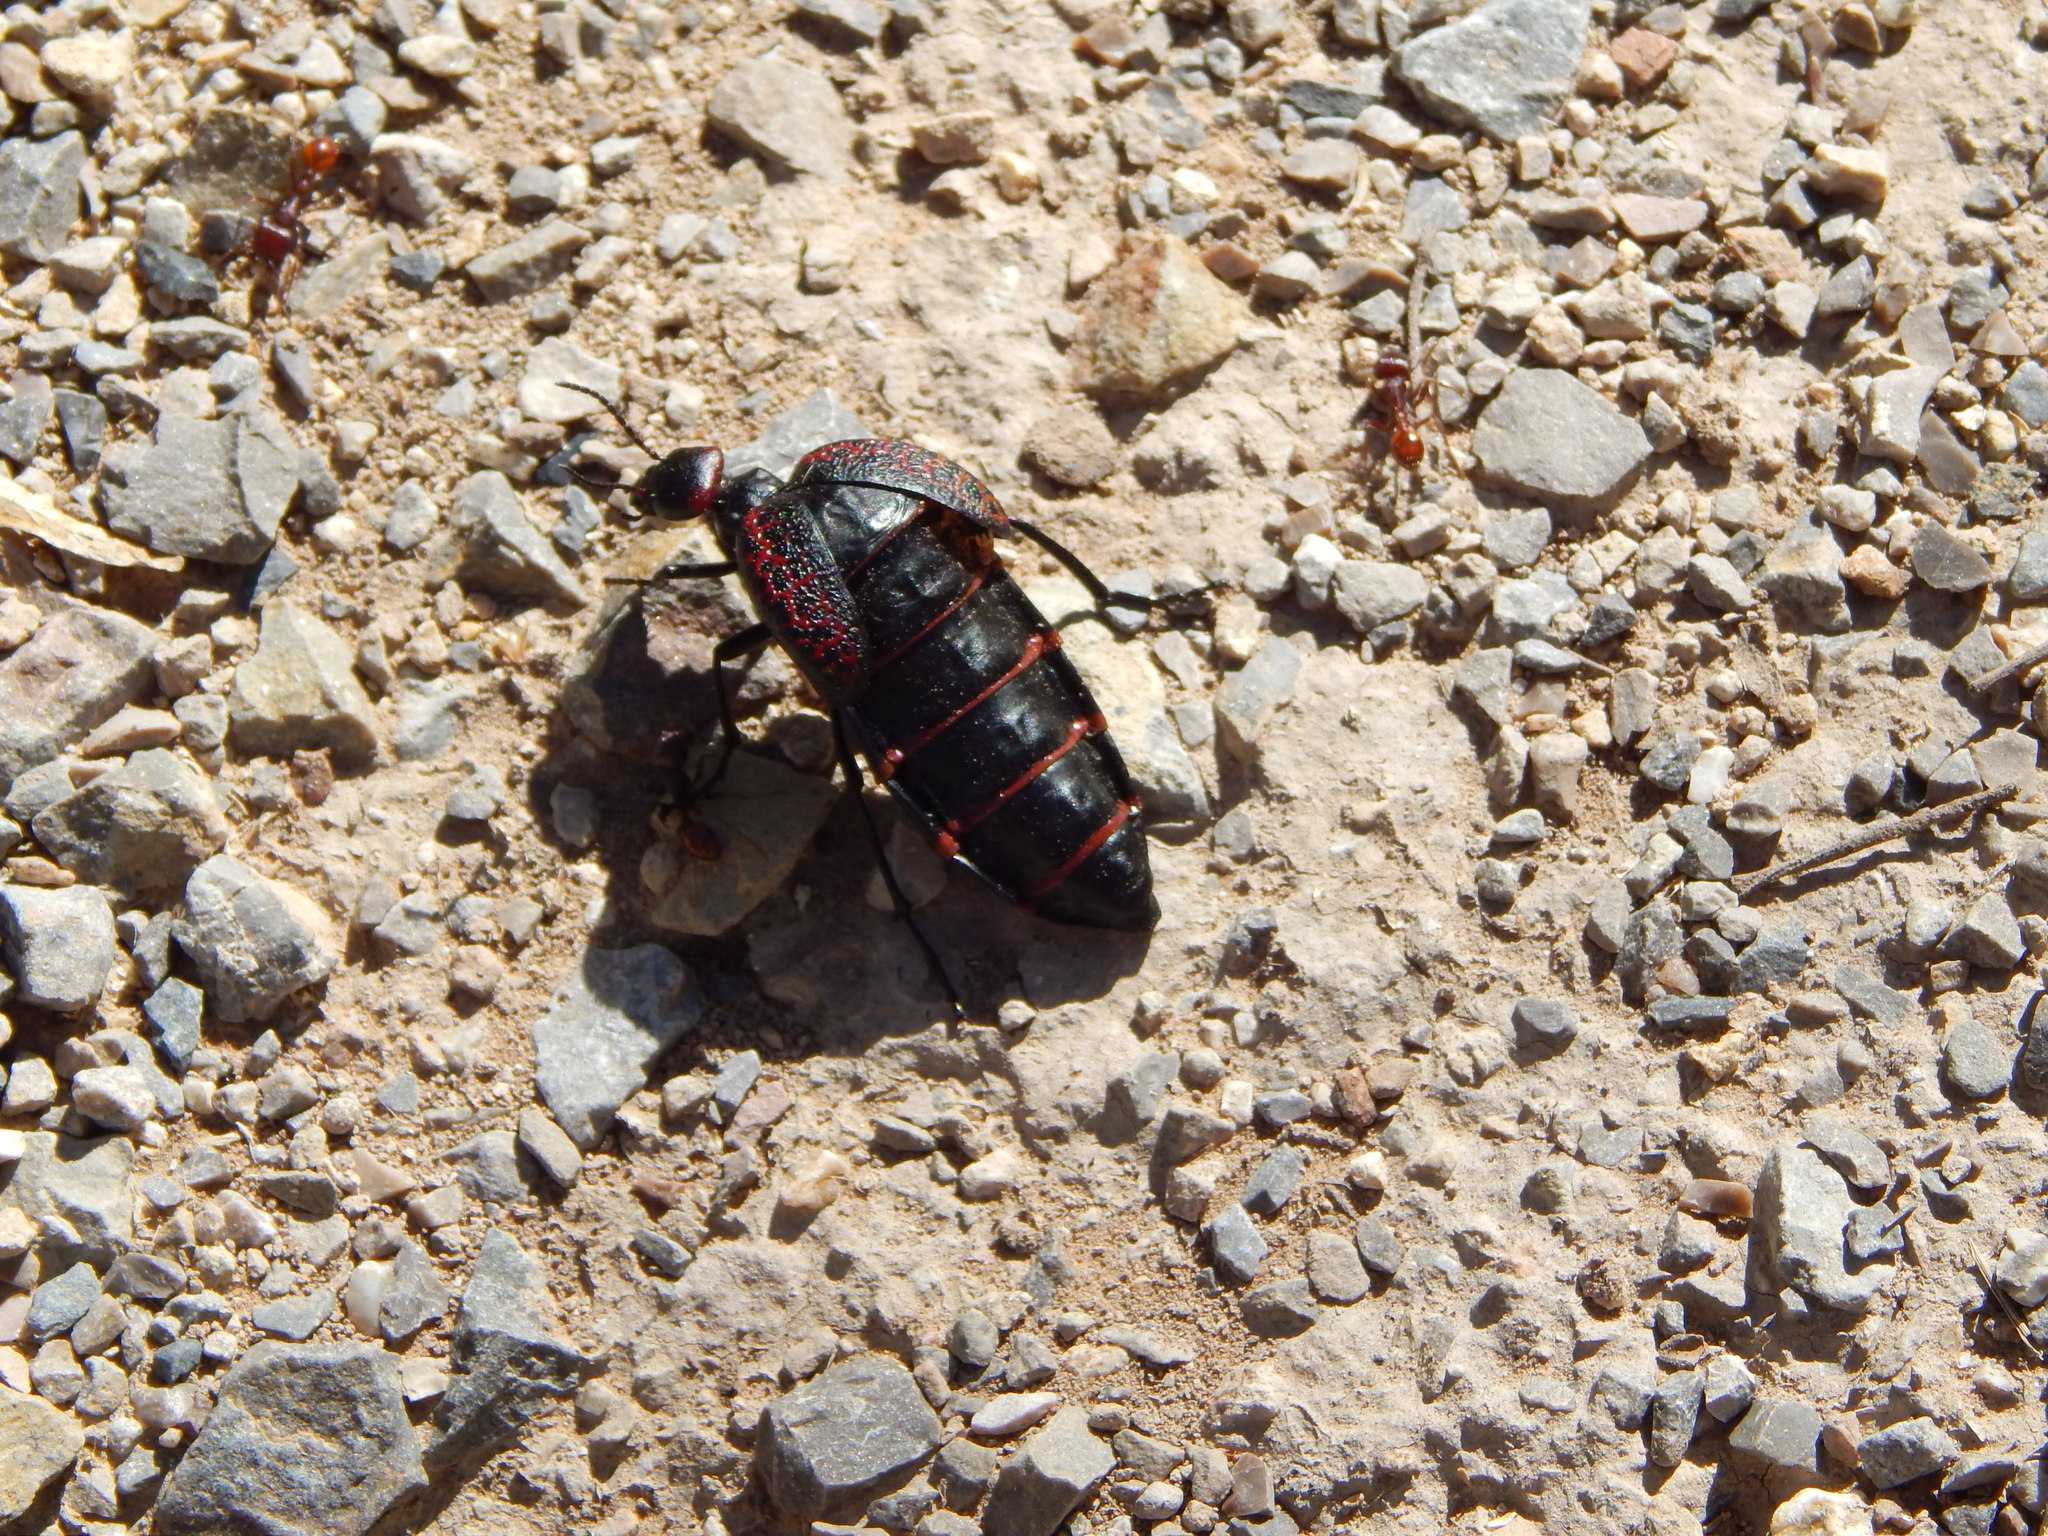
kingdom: Animalia
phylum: Arthropoda
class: Insecta
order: Coleoptera
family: Meloidae
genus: Megetra
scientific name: Megetra cancellata
